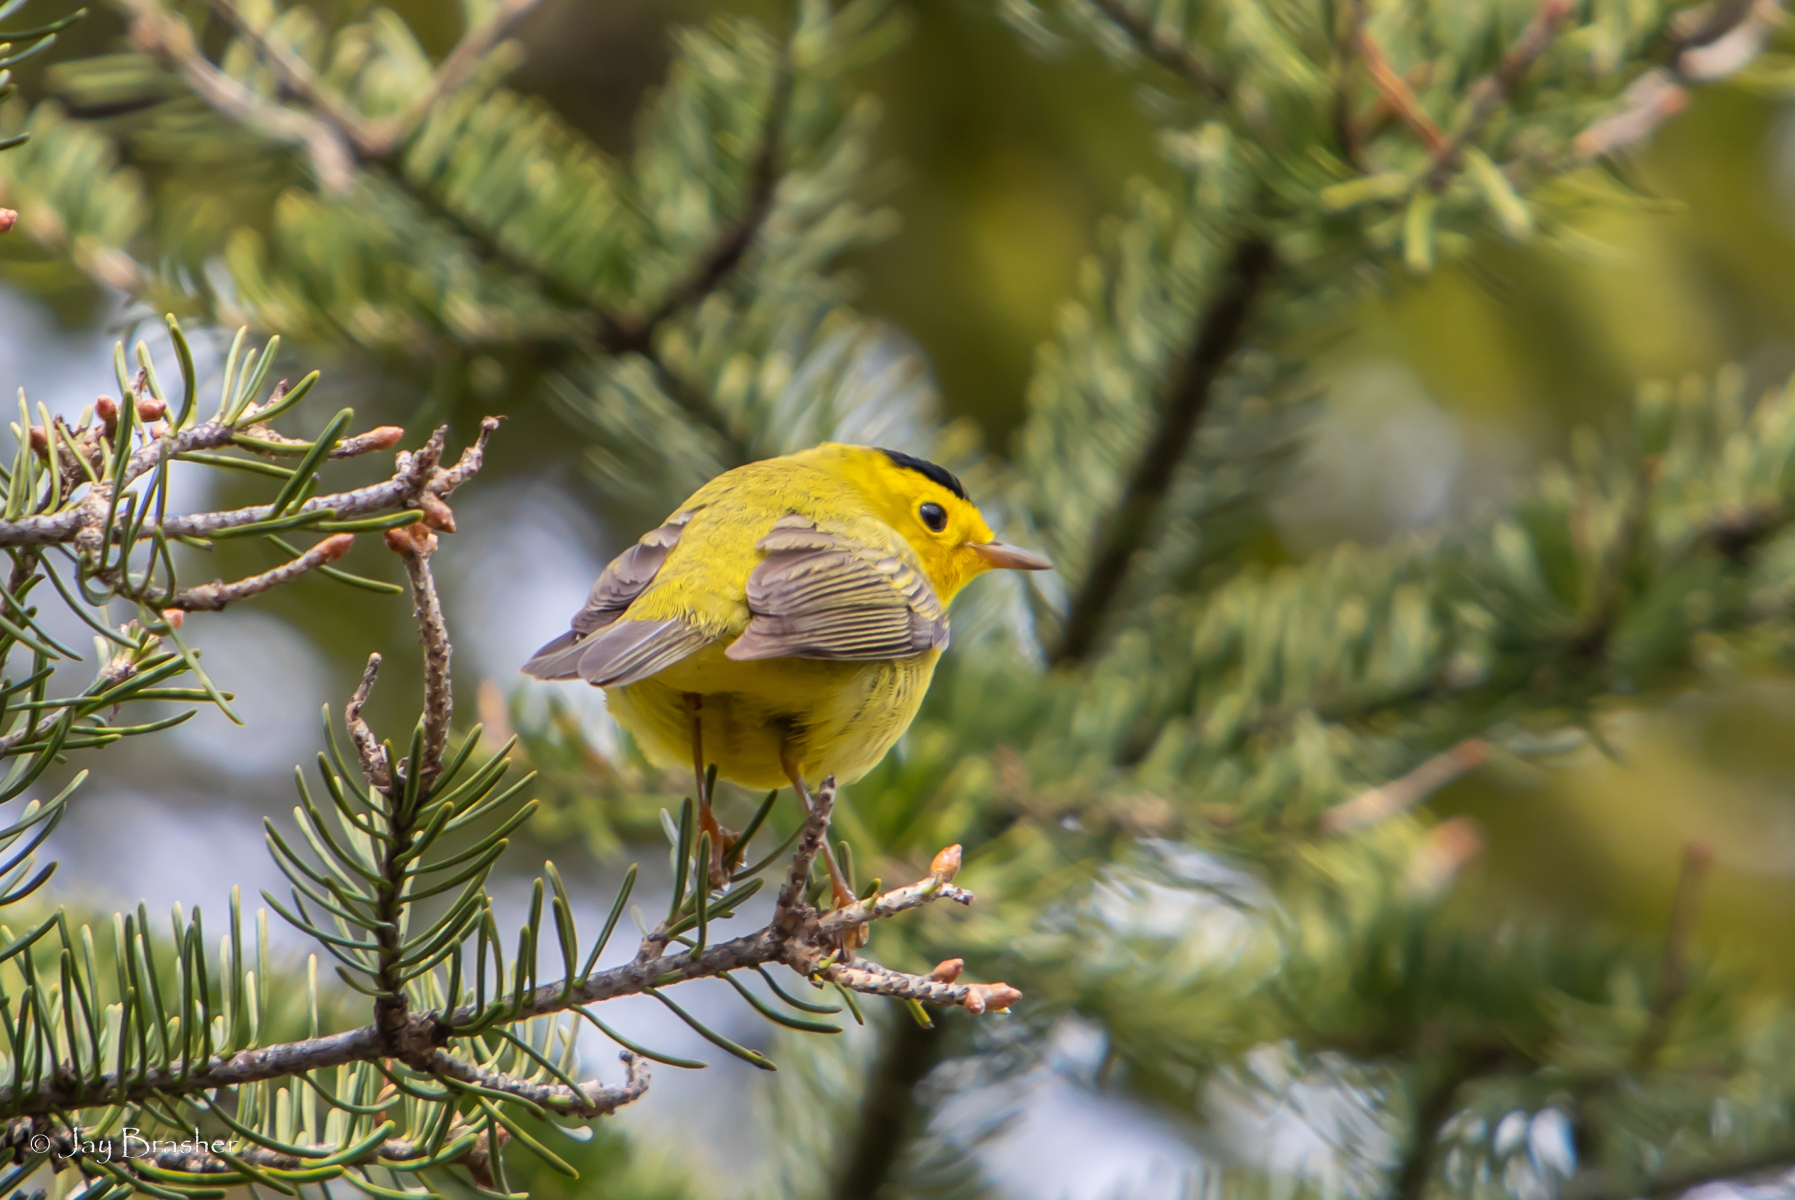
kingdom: Animalia
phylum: Chordata
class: Aves
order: Passeriformes
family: Parulidae
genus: Cardellina
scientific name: Cardellina pusilla
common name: Wilson's warbler
